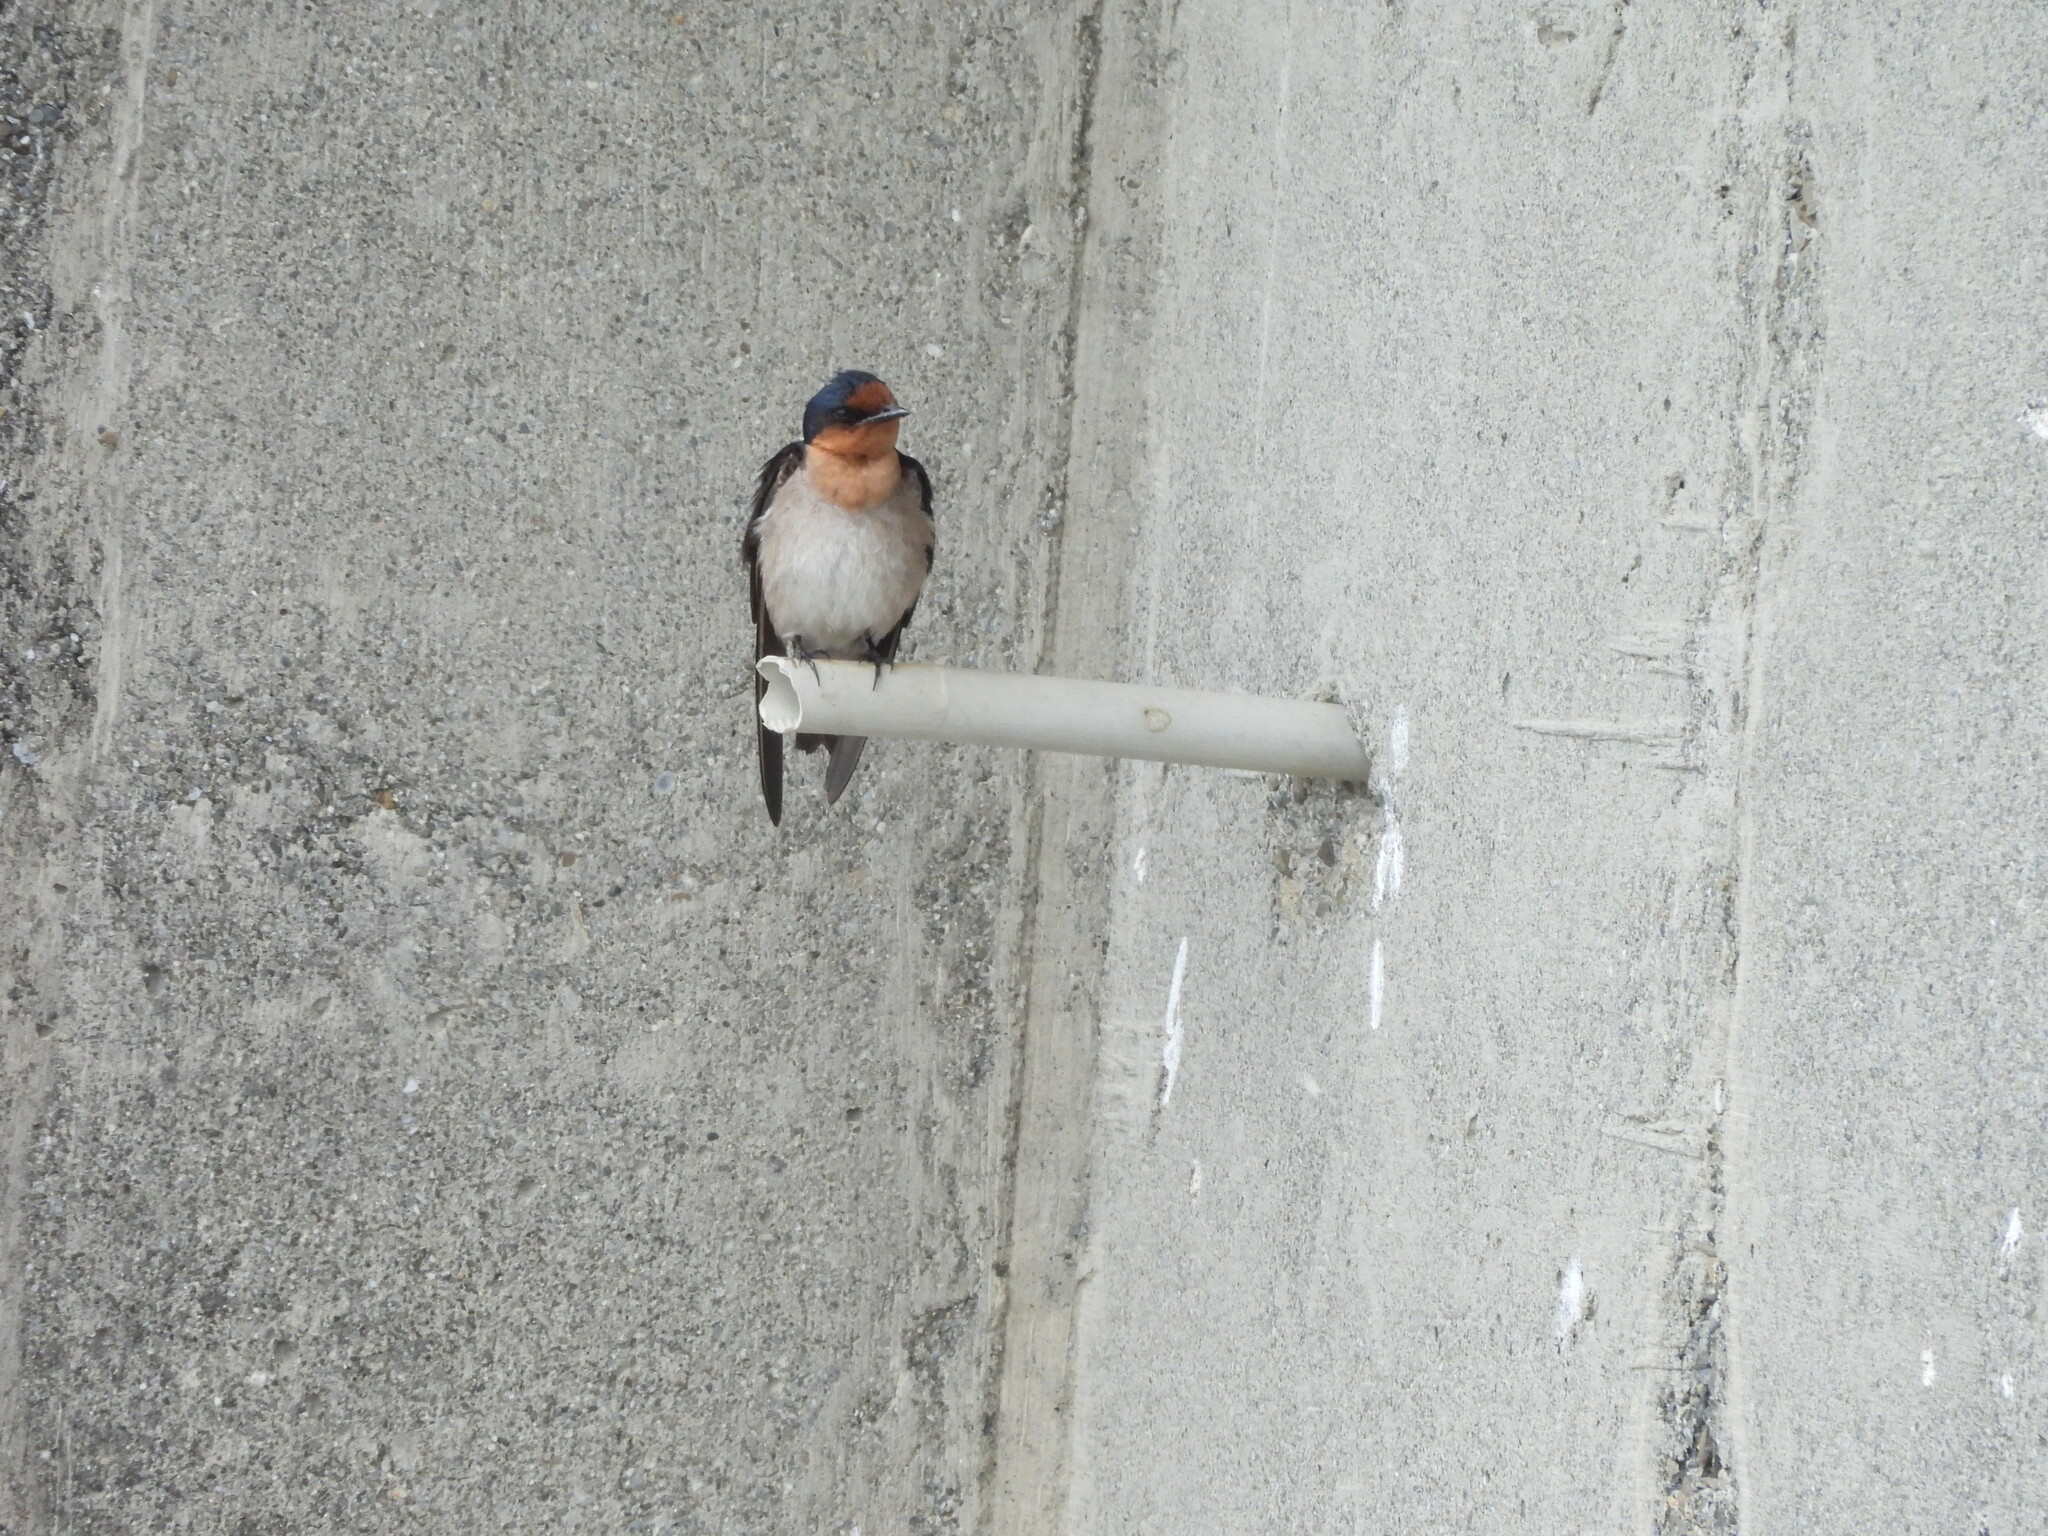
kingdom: Animalia
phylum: Chordata
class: Aves
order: Passeriformes
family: Hirundinidae
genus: Hirundo
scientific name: Hirundo tahitica
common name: Pacific swallow
